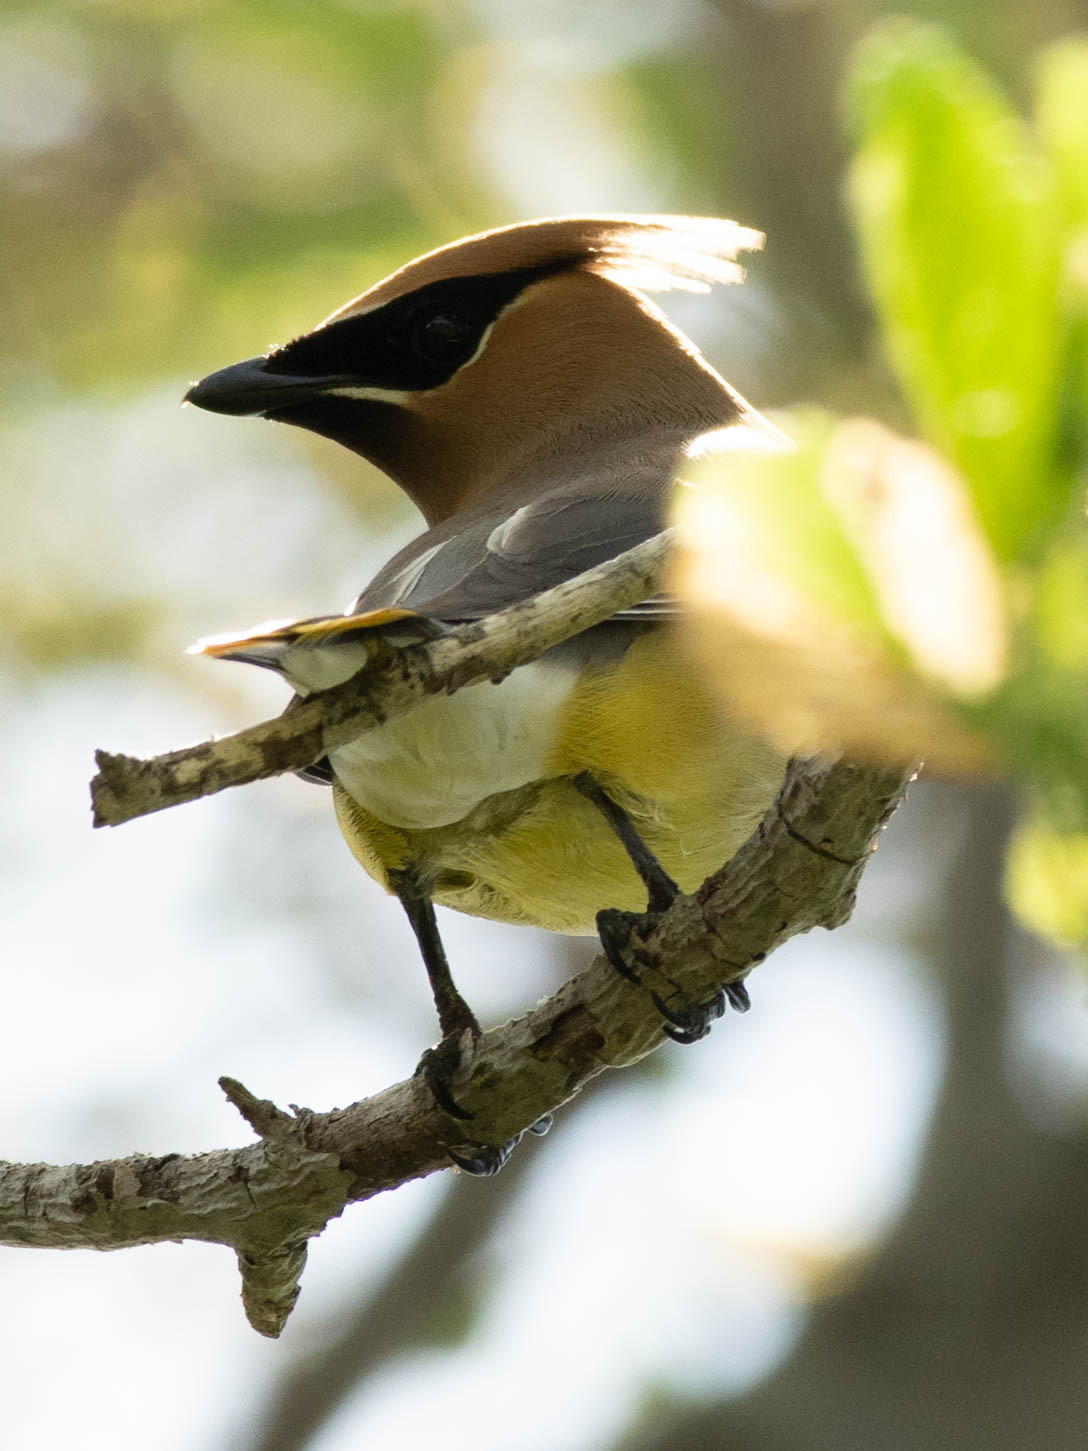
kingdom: Animalia
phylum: Chordata
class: Aves
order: Passeriformes
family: Bombycillidae
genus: Bombycilla
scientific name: Bombycilla cedrorum
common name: Cedar waxwing
